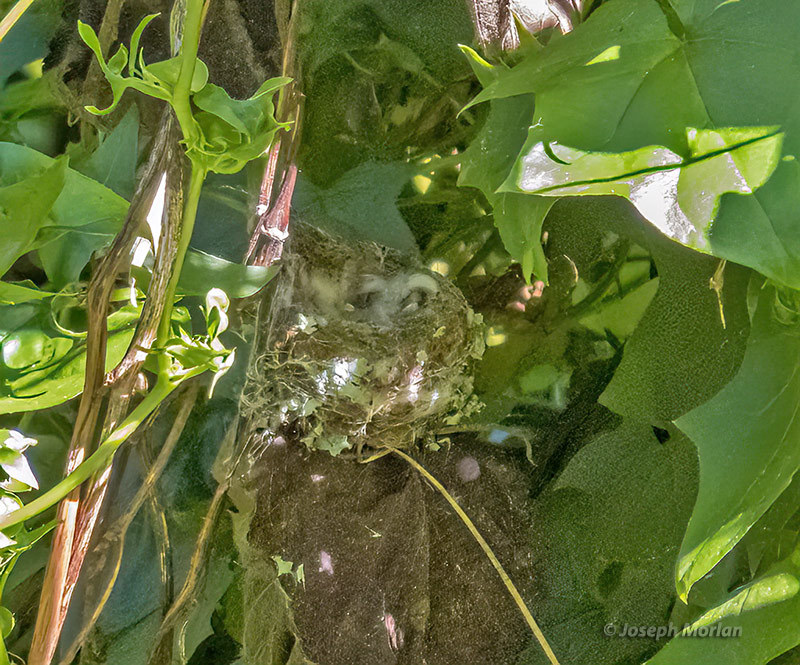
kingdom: Animalia
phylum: Chordata
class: Aves
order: Apodiformes
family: Trochilidae
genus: Selasphorus
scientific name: Selasphorus sasin
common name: Allen's hummingbird
